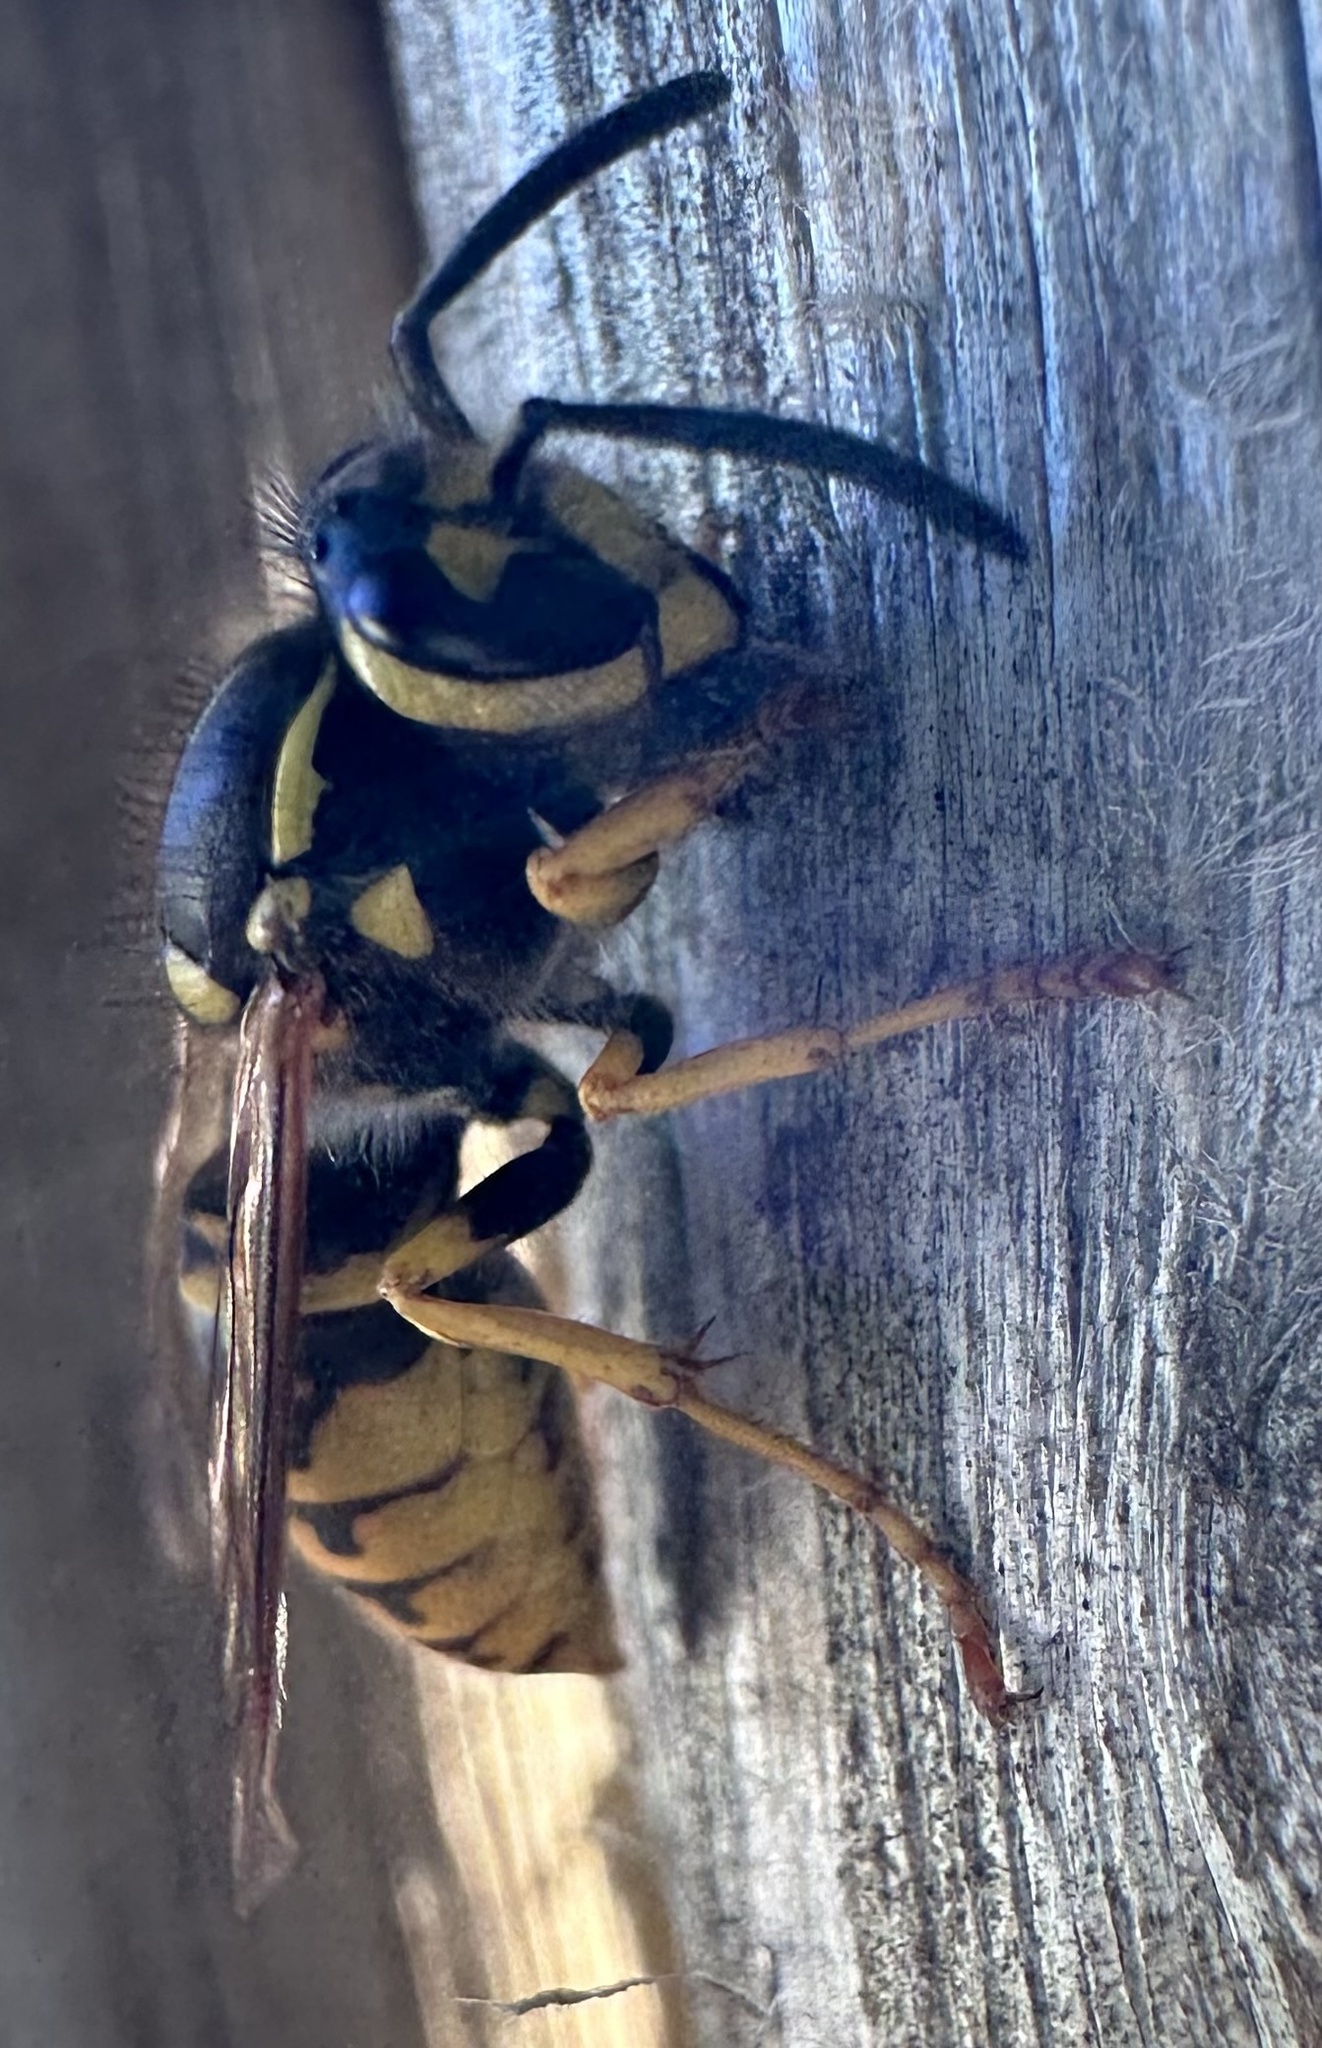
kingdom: Animalia
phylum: Arthropoda
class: Insecta
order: Hymenoptera
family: Vespidae
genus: Vespula
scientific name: Vespula germanica
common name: German wasp
